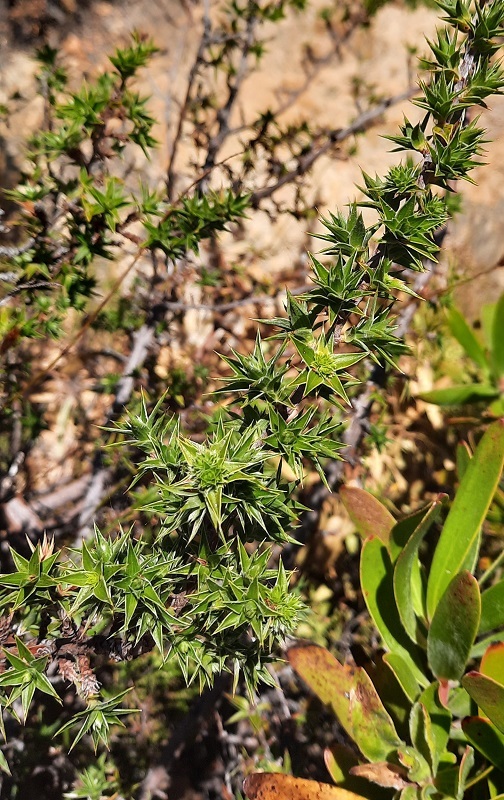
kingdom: Plantae
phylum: Tracheophyta
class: Magnoliopsida
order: Rosales
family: Rosaceae
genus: Cliffortia
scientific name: Cliffortia ruscifolia
